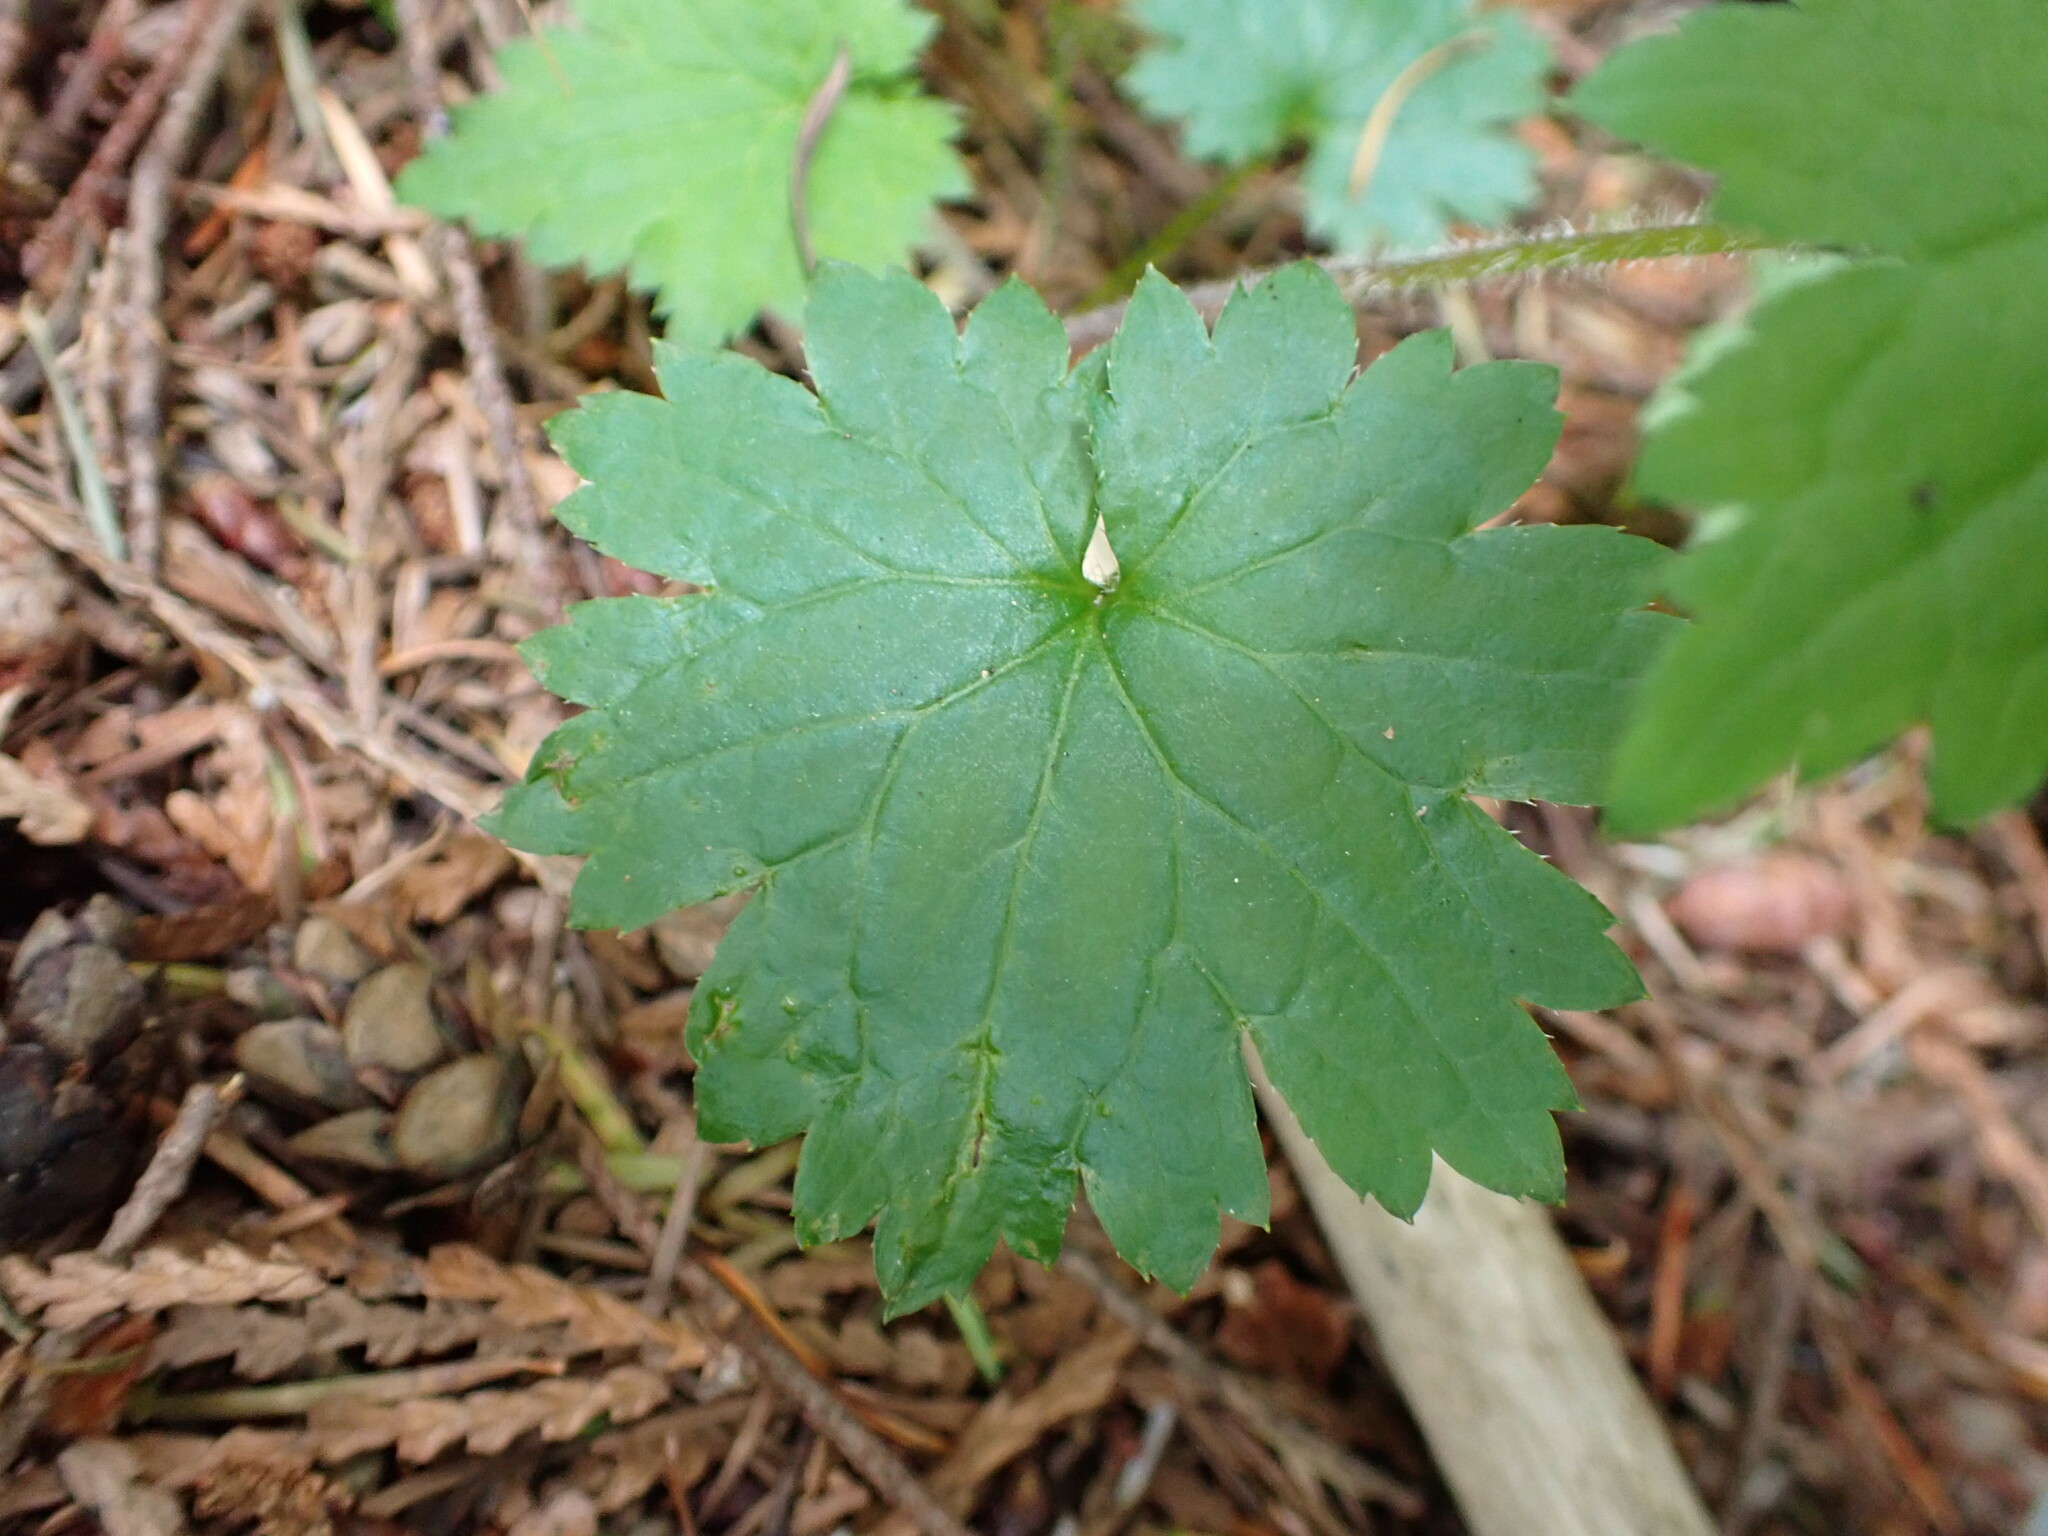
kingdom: Plantae
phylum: Tracheophyta
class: Magnoliopsida
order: Saxifragales
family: Saxifragaceae
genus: Boykinia
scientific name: Boykinia occidentalis
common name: Coast boykinia
